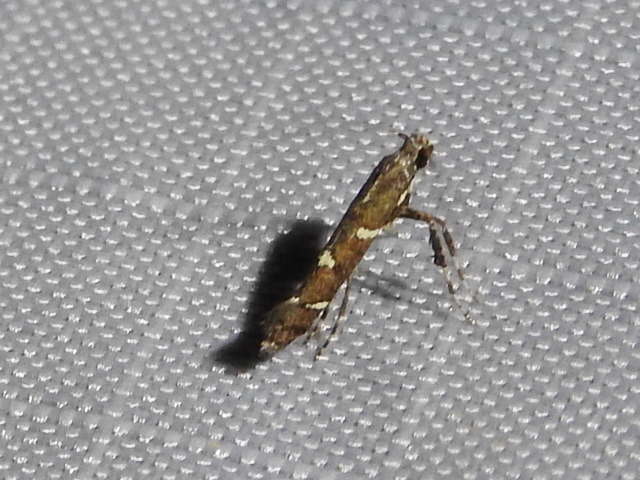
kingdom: Animalia
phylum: Arthropoda
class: Insecta
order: Lepidoptera
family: Gracillariidae
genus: Caloptilia
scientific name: Caloptilia triadicae
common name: Tallow leaf roller
